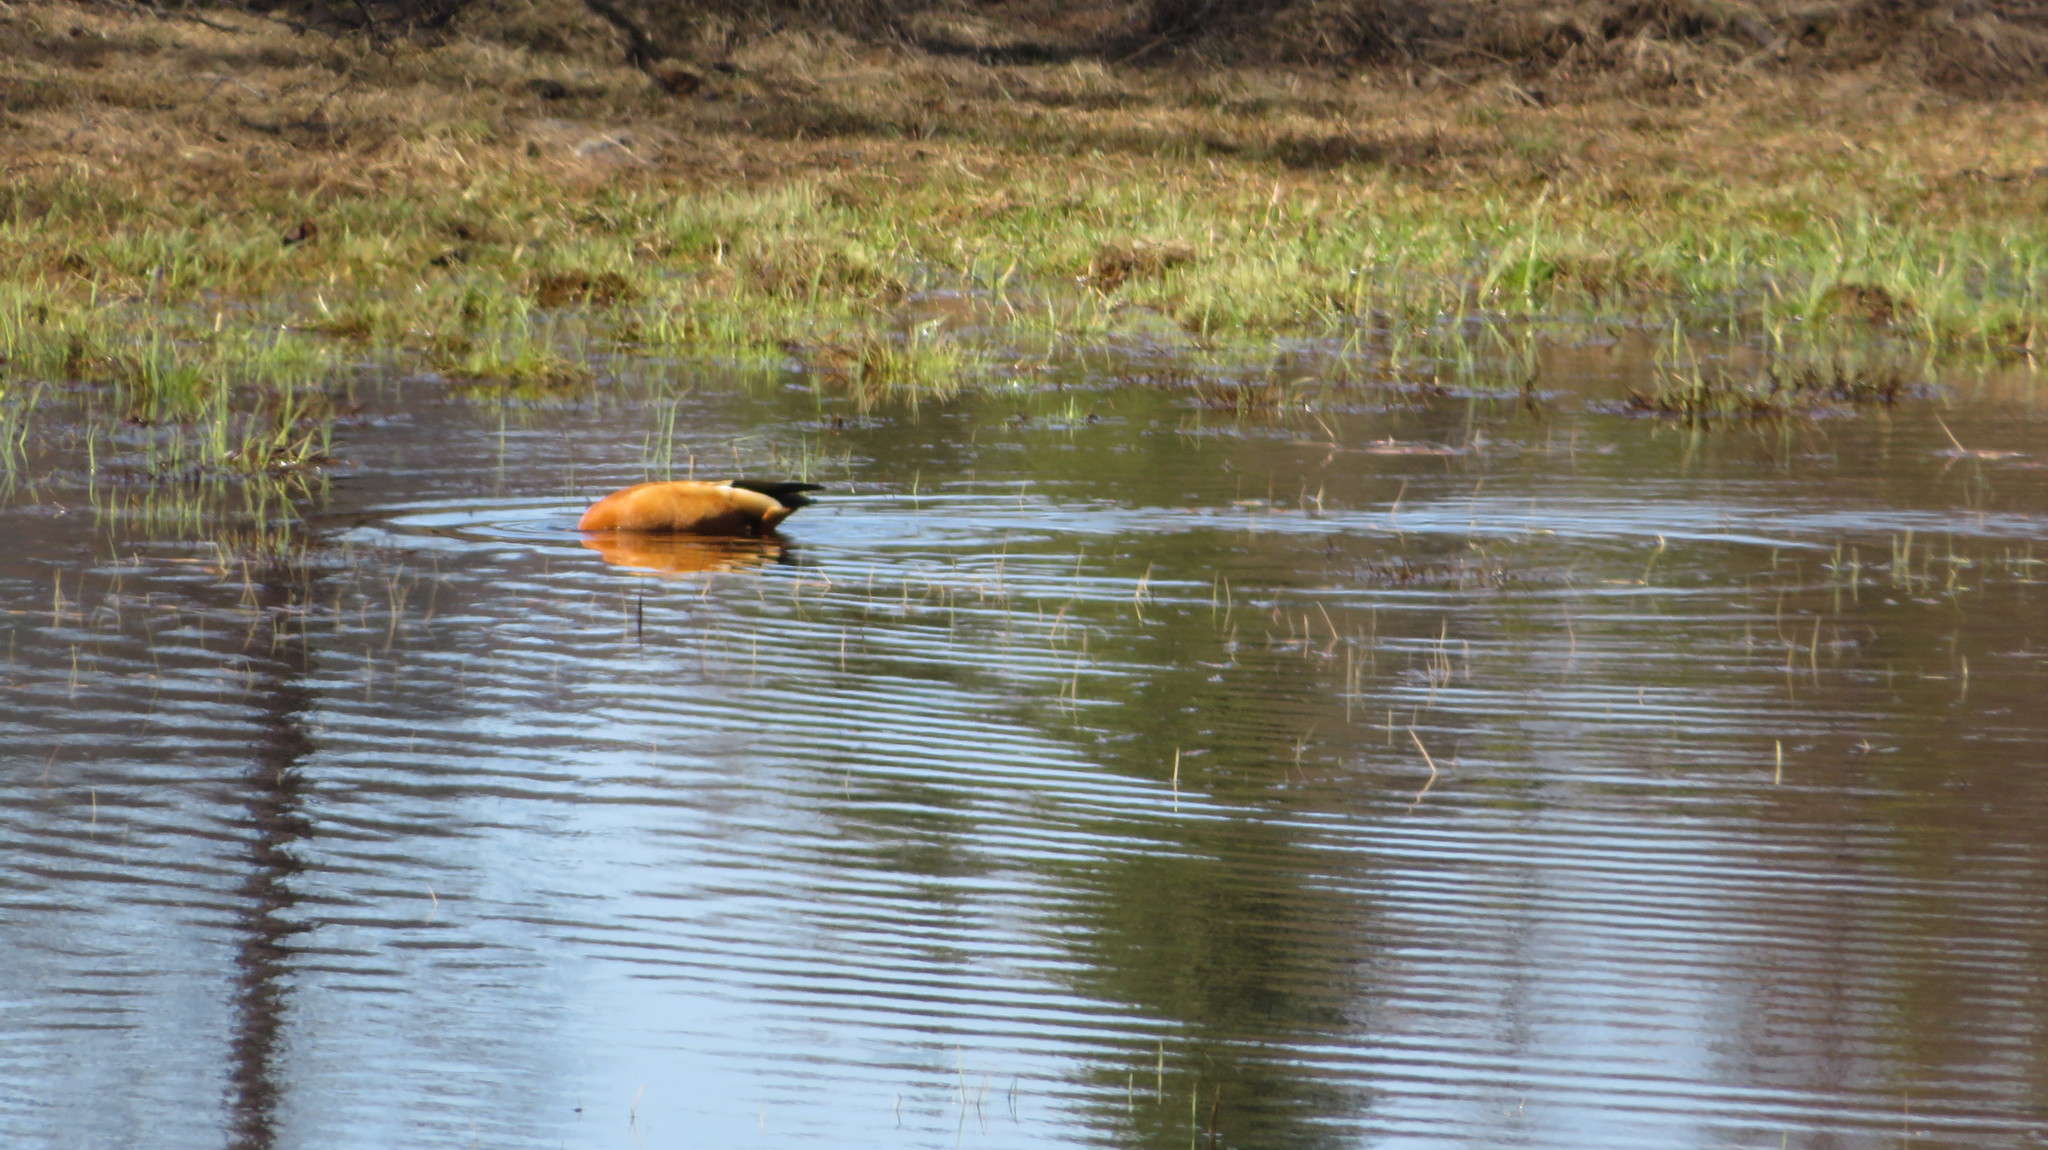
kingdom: Animalia
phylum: Chordata
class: Aves
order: Anseriformes
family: Anatidae
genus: Tadorna
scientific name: Tadorna ferruginea
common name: Ruddy shelduck
